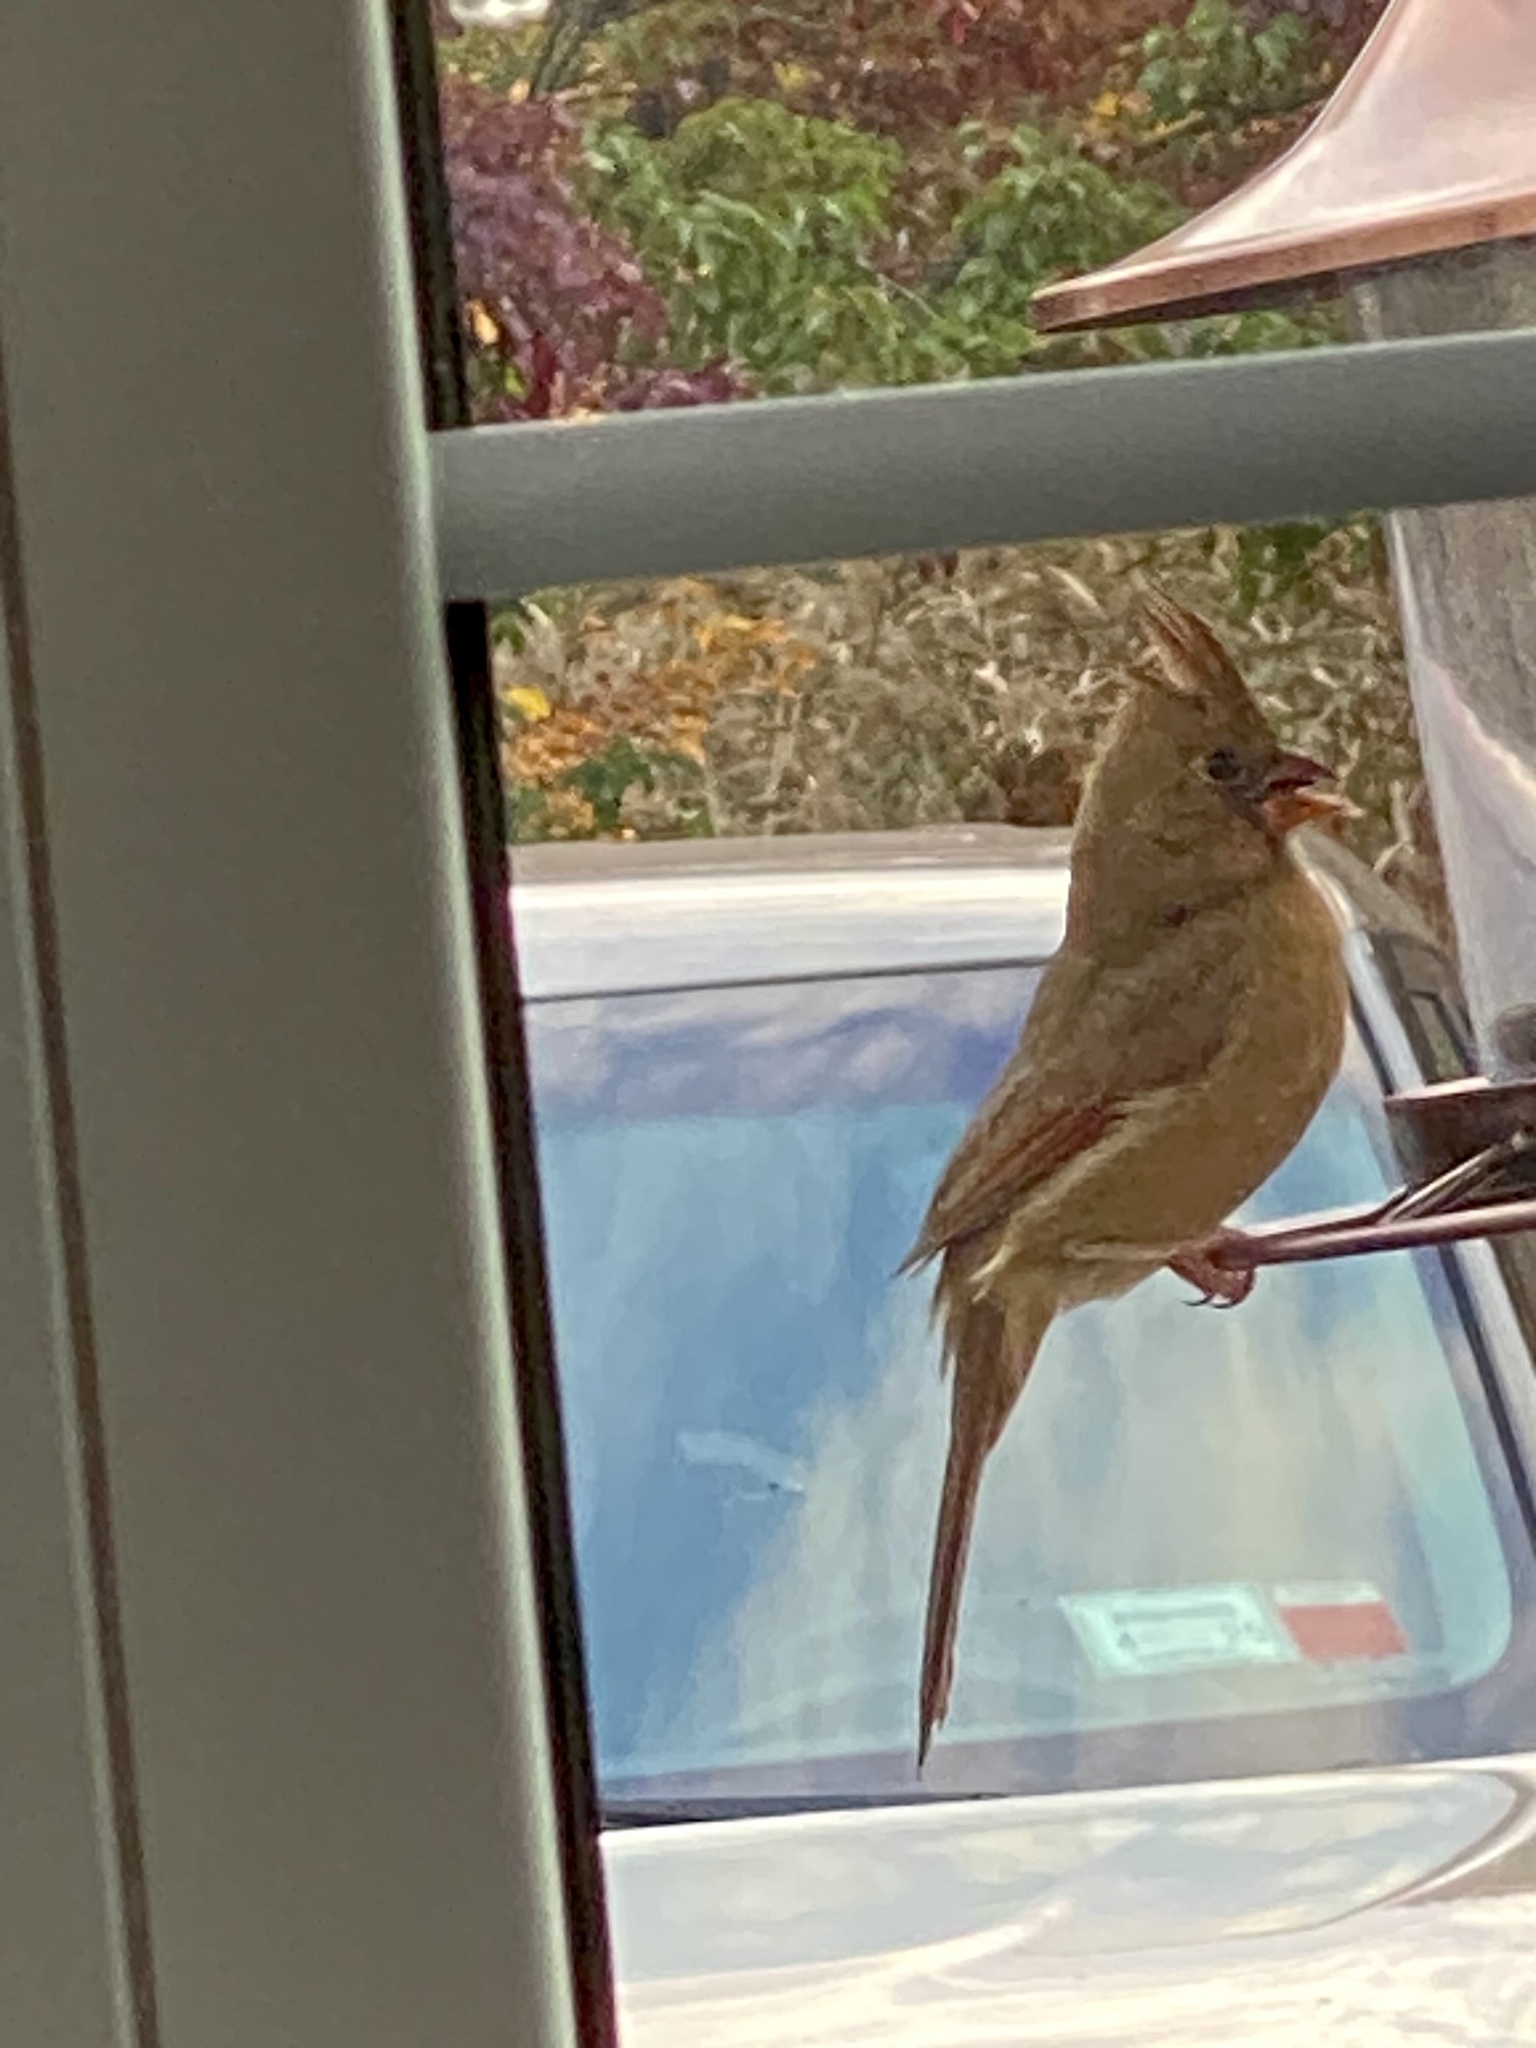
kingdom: Animalia
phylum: Chordata
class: Aves
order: Passeriformes
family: Cardinalidae
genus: Cardinalis
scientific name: Cardinalis cardinalis
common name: Northern cardinal
